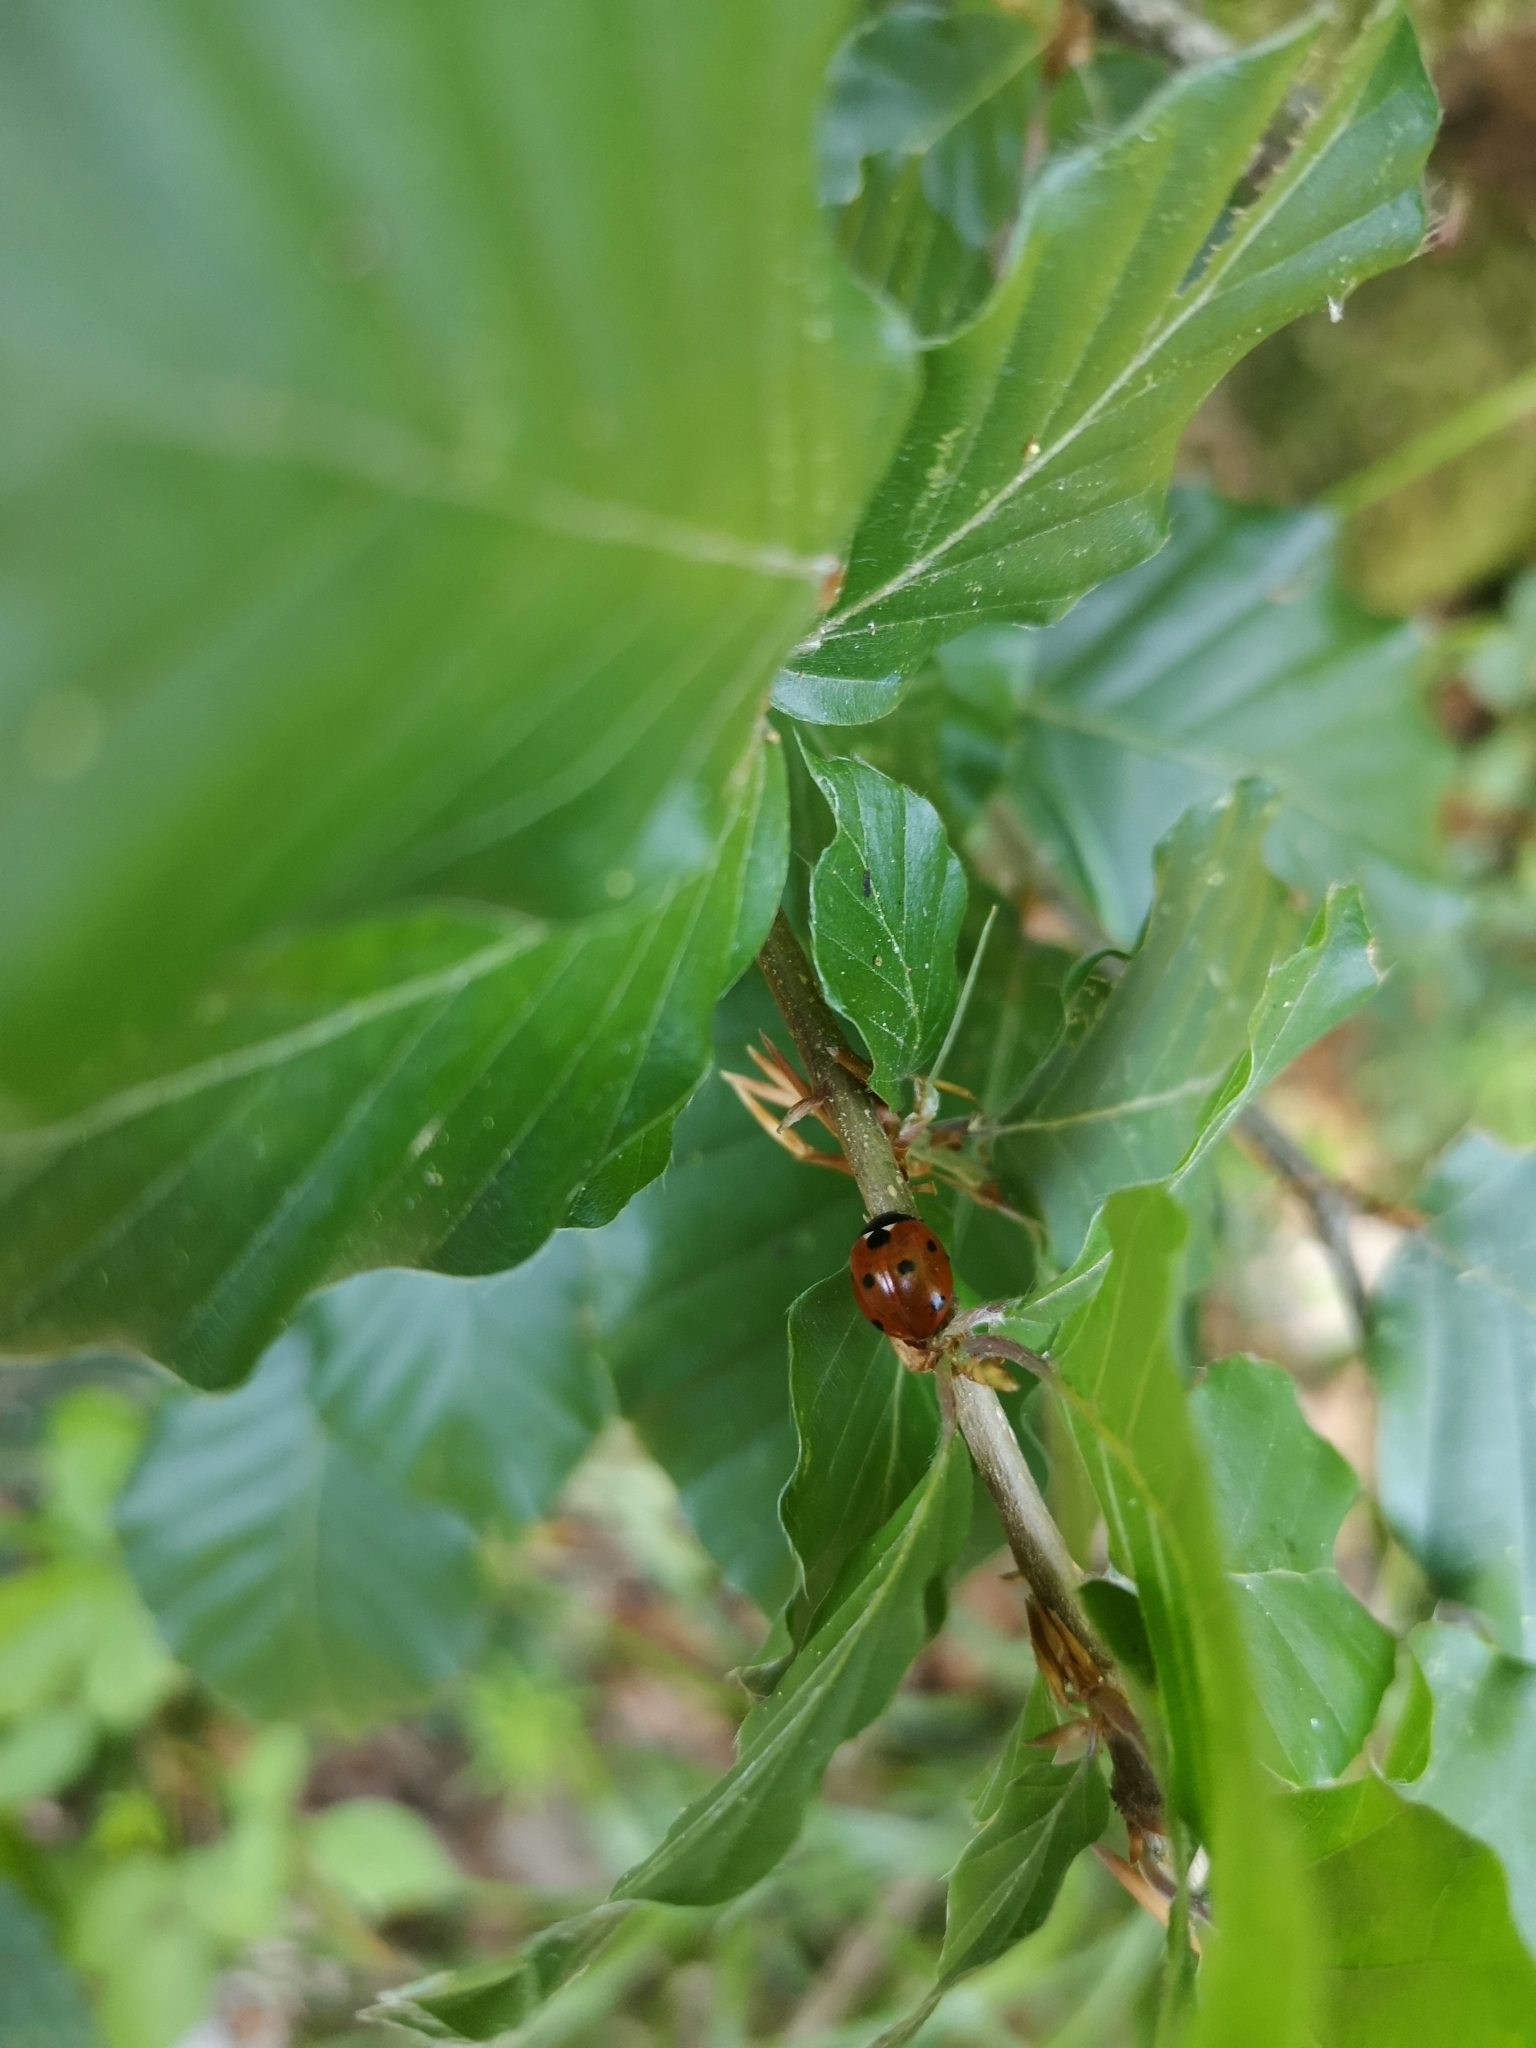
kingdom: Animalia
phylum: Arthropoda
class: Insecta
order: Coleoptera
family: Coccinellidae
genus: Coccinella
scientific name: Coccinella septempunctata
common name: Sevenspotted lady beetle
